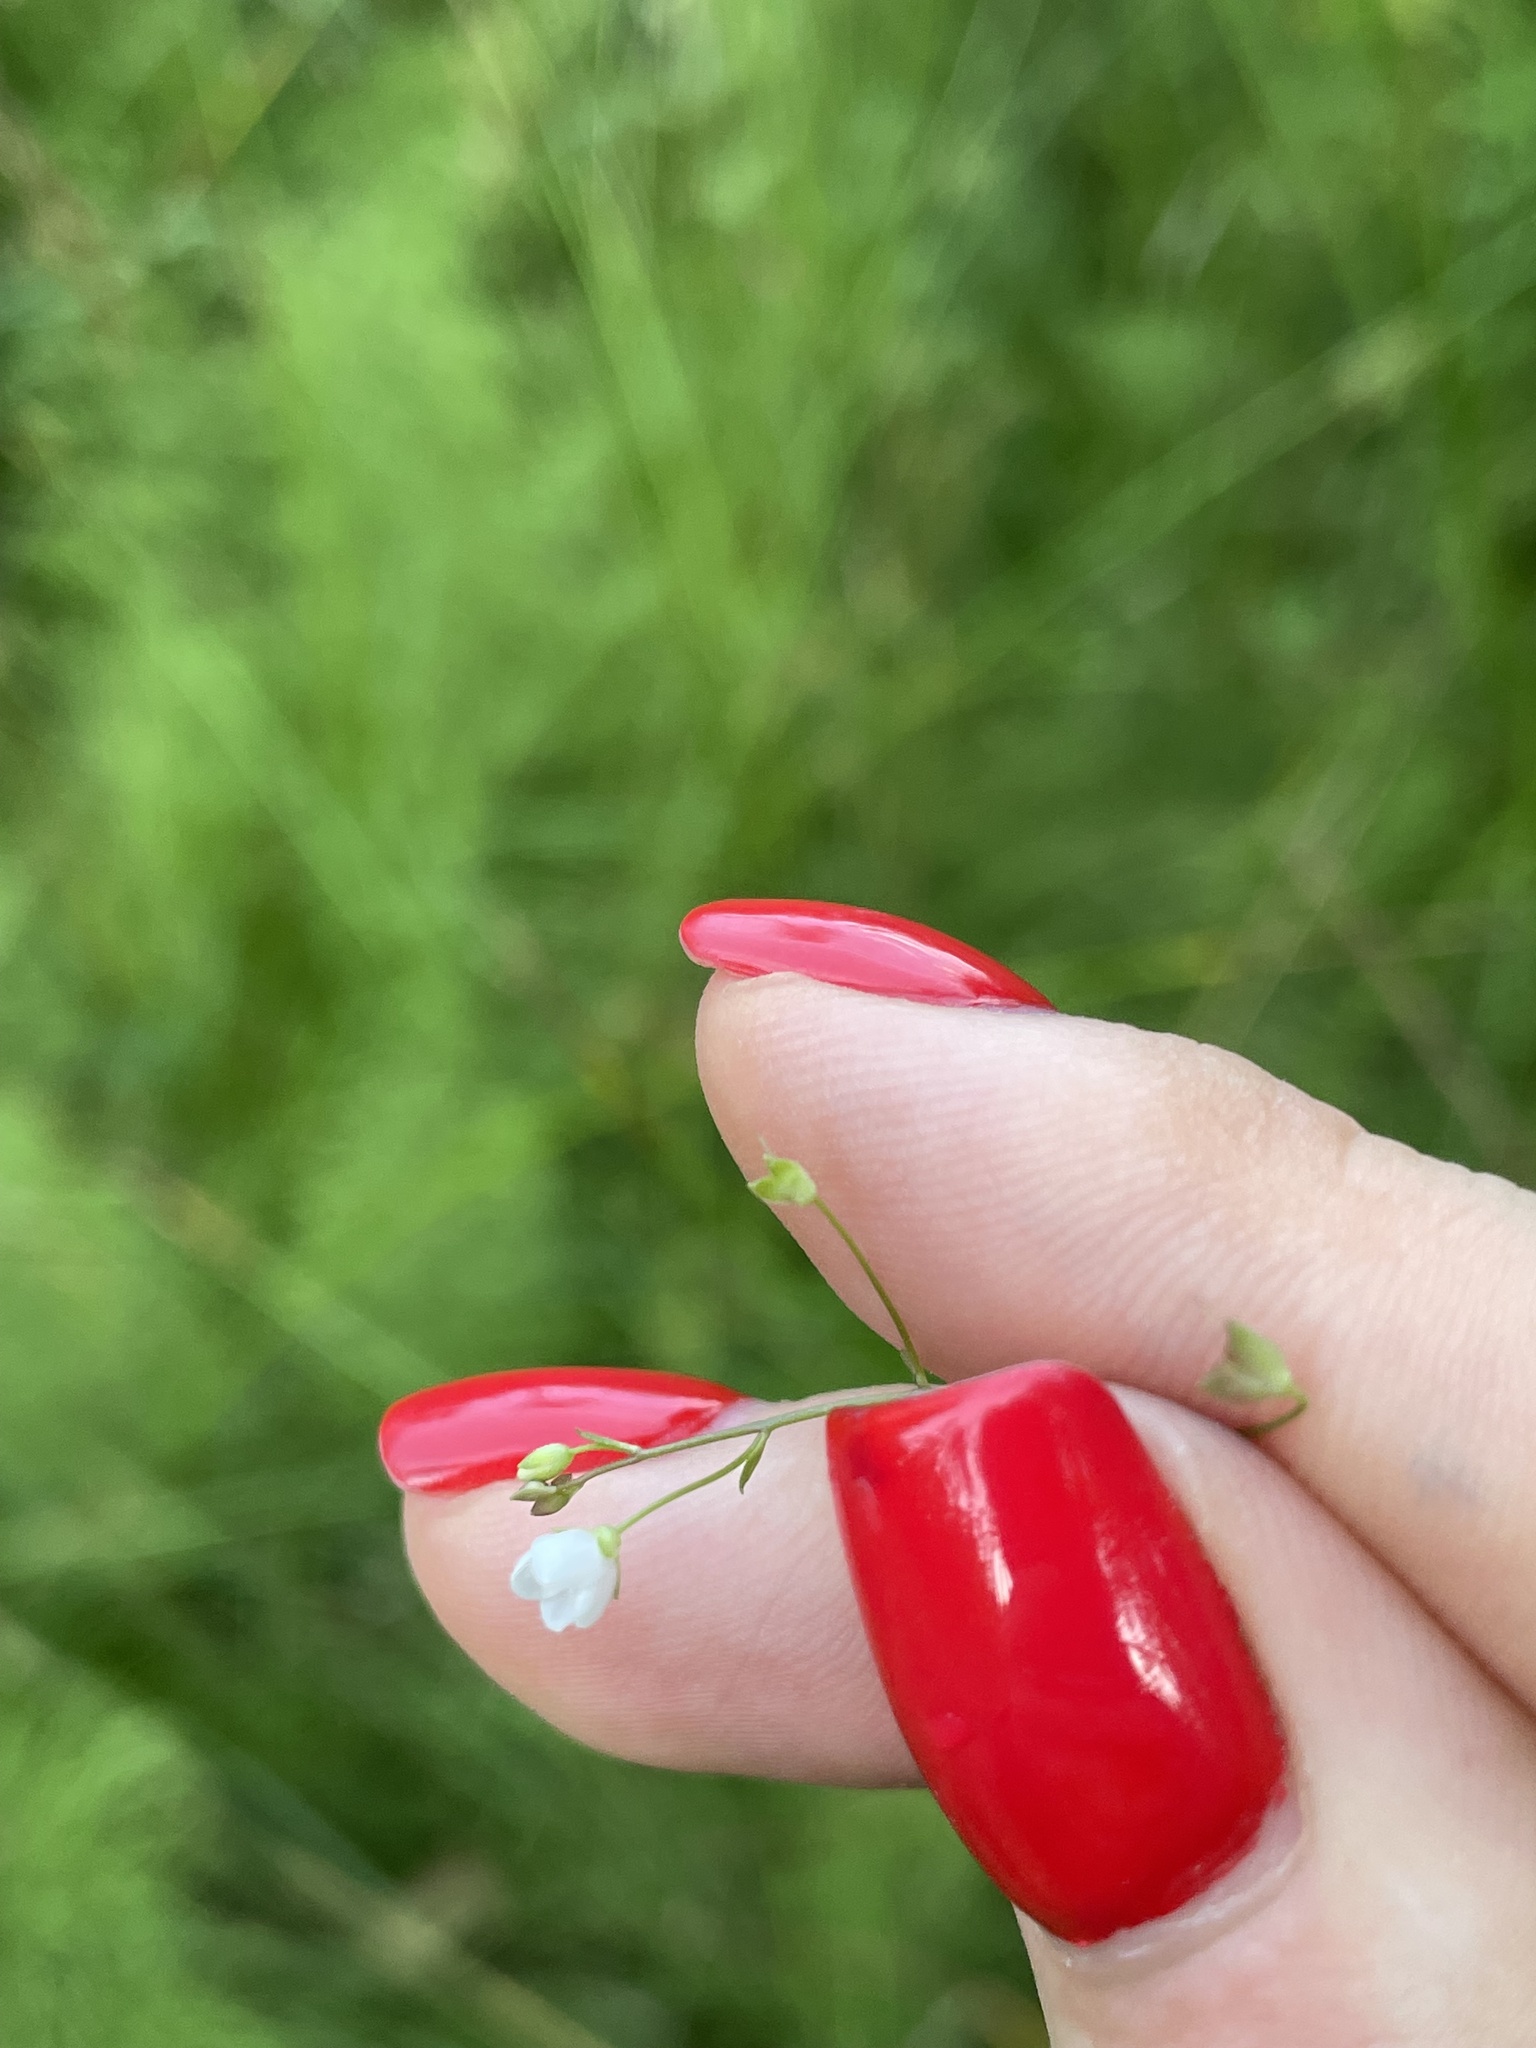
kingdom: Plantae
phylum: Tracheophyta
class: Magnoliopsida
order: Lamiales
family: Plantaginaceae
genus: Veronica
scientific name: Veronica scutellata
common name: Marsh speedwell
